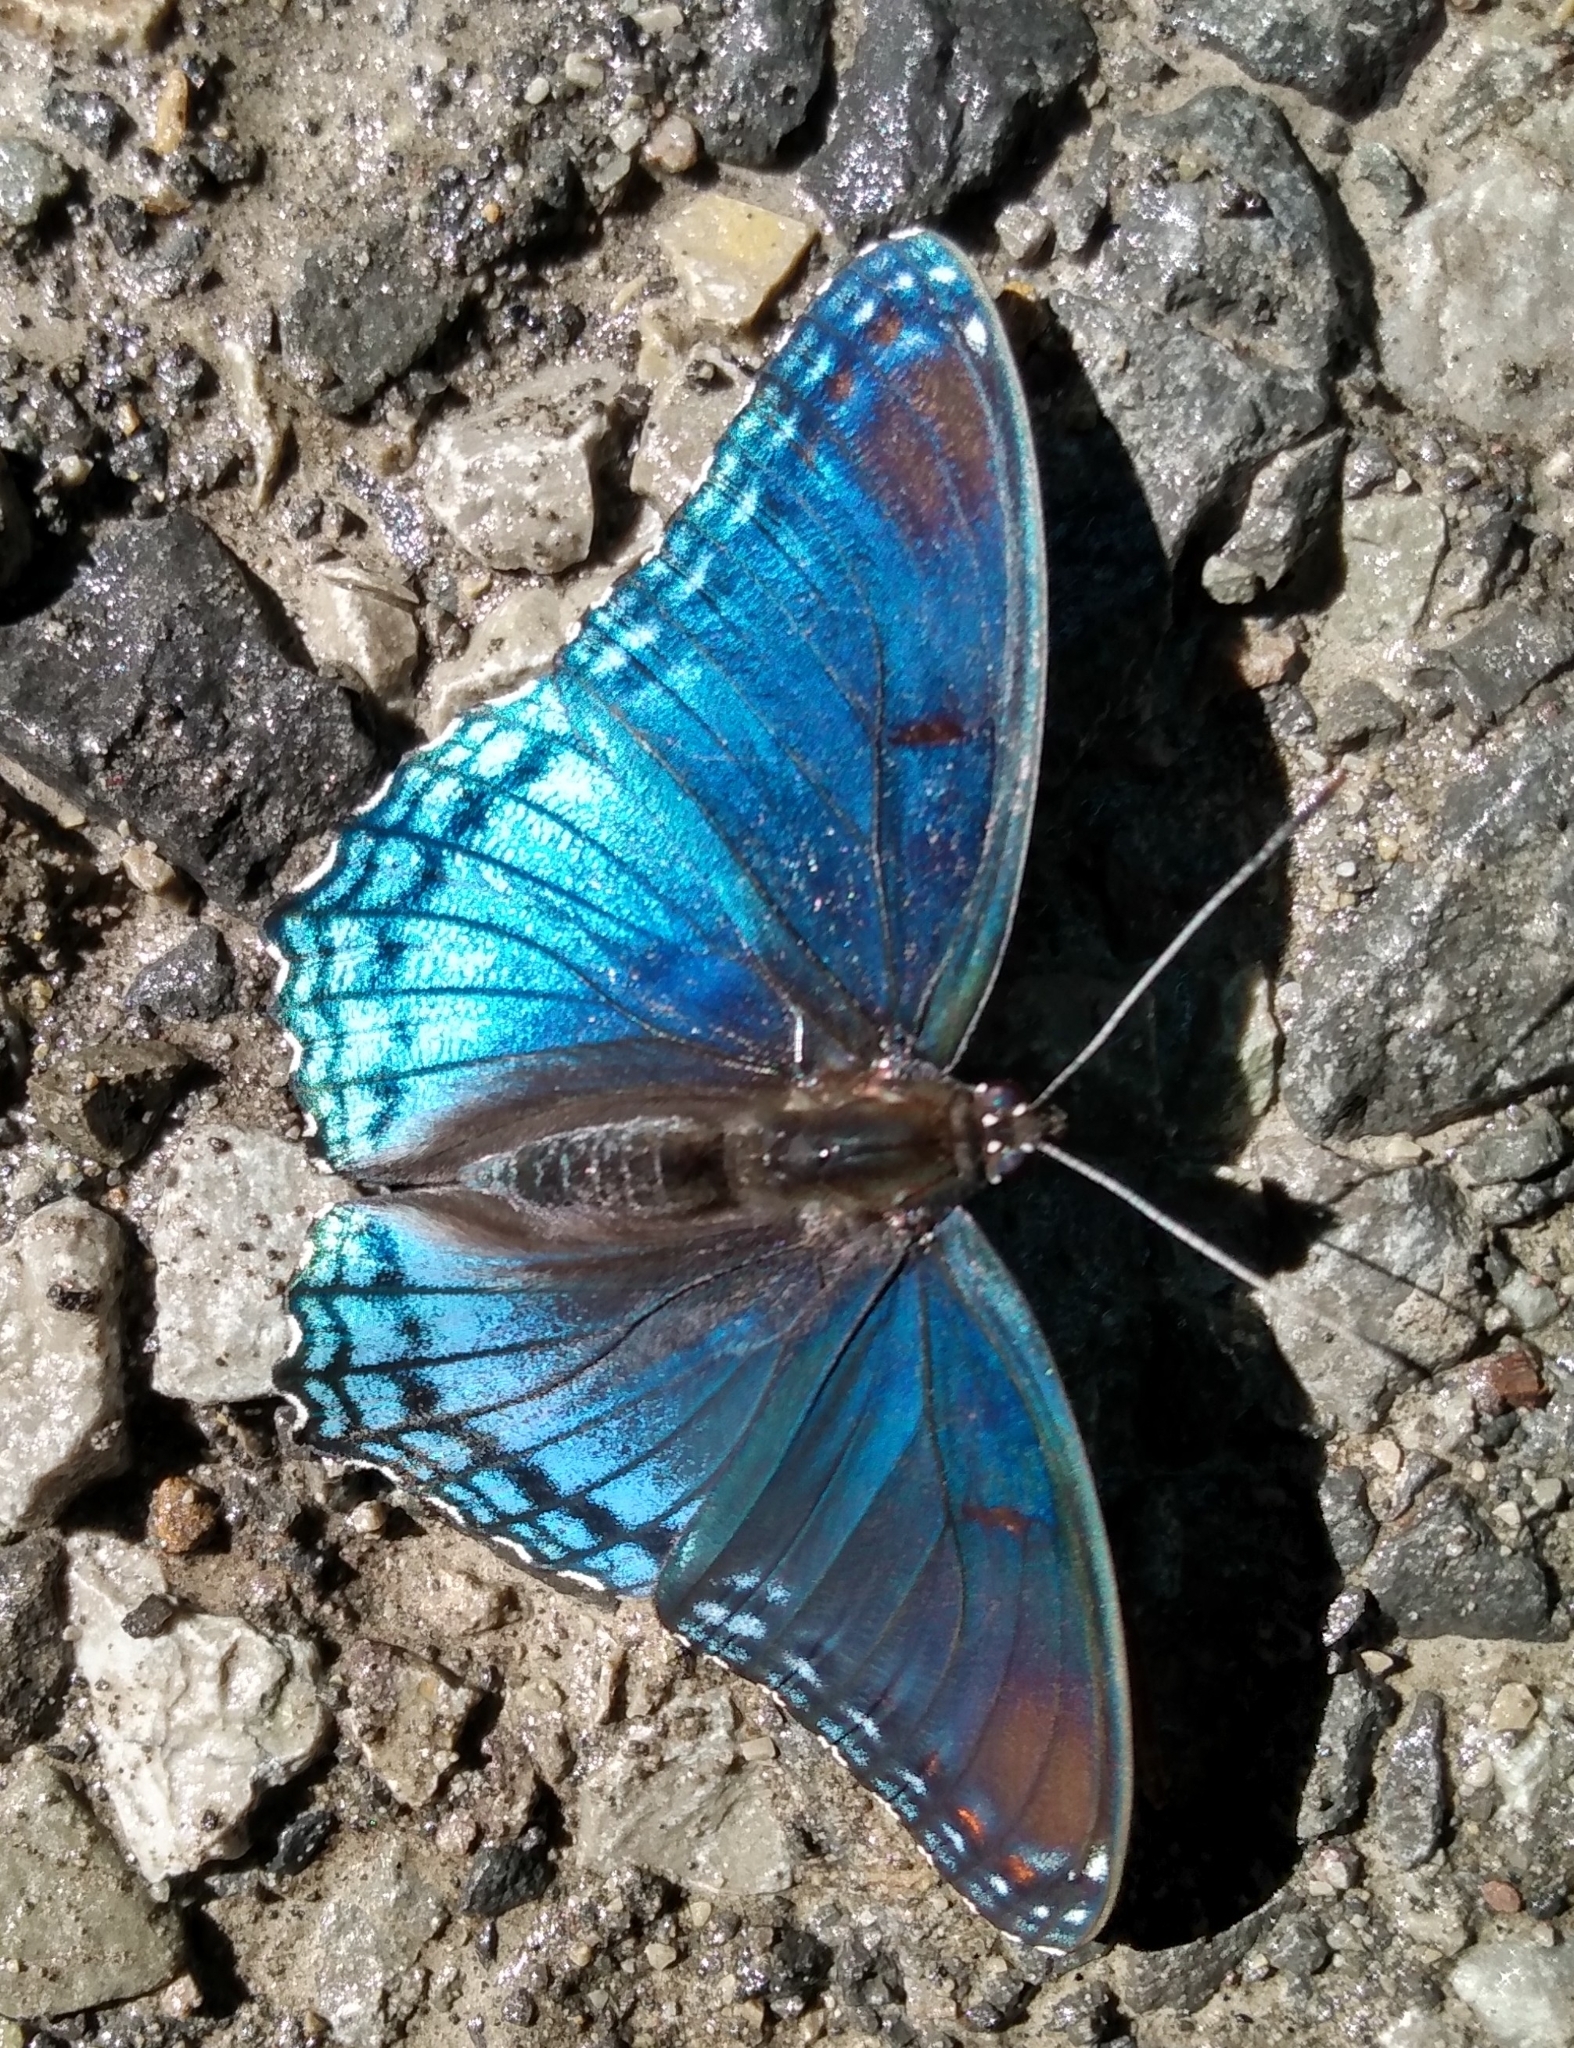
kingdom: Animalia
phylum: Arthropoda
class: Insecta
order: Lepidoptera
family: Nymphalidae
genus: Limenitis
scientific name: Limenitis astyanax
